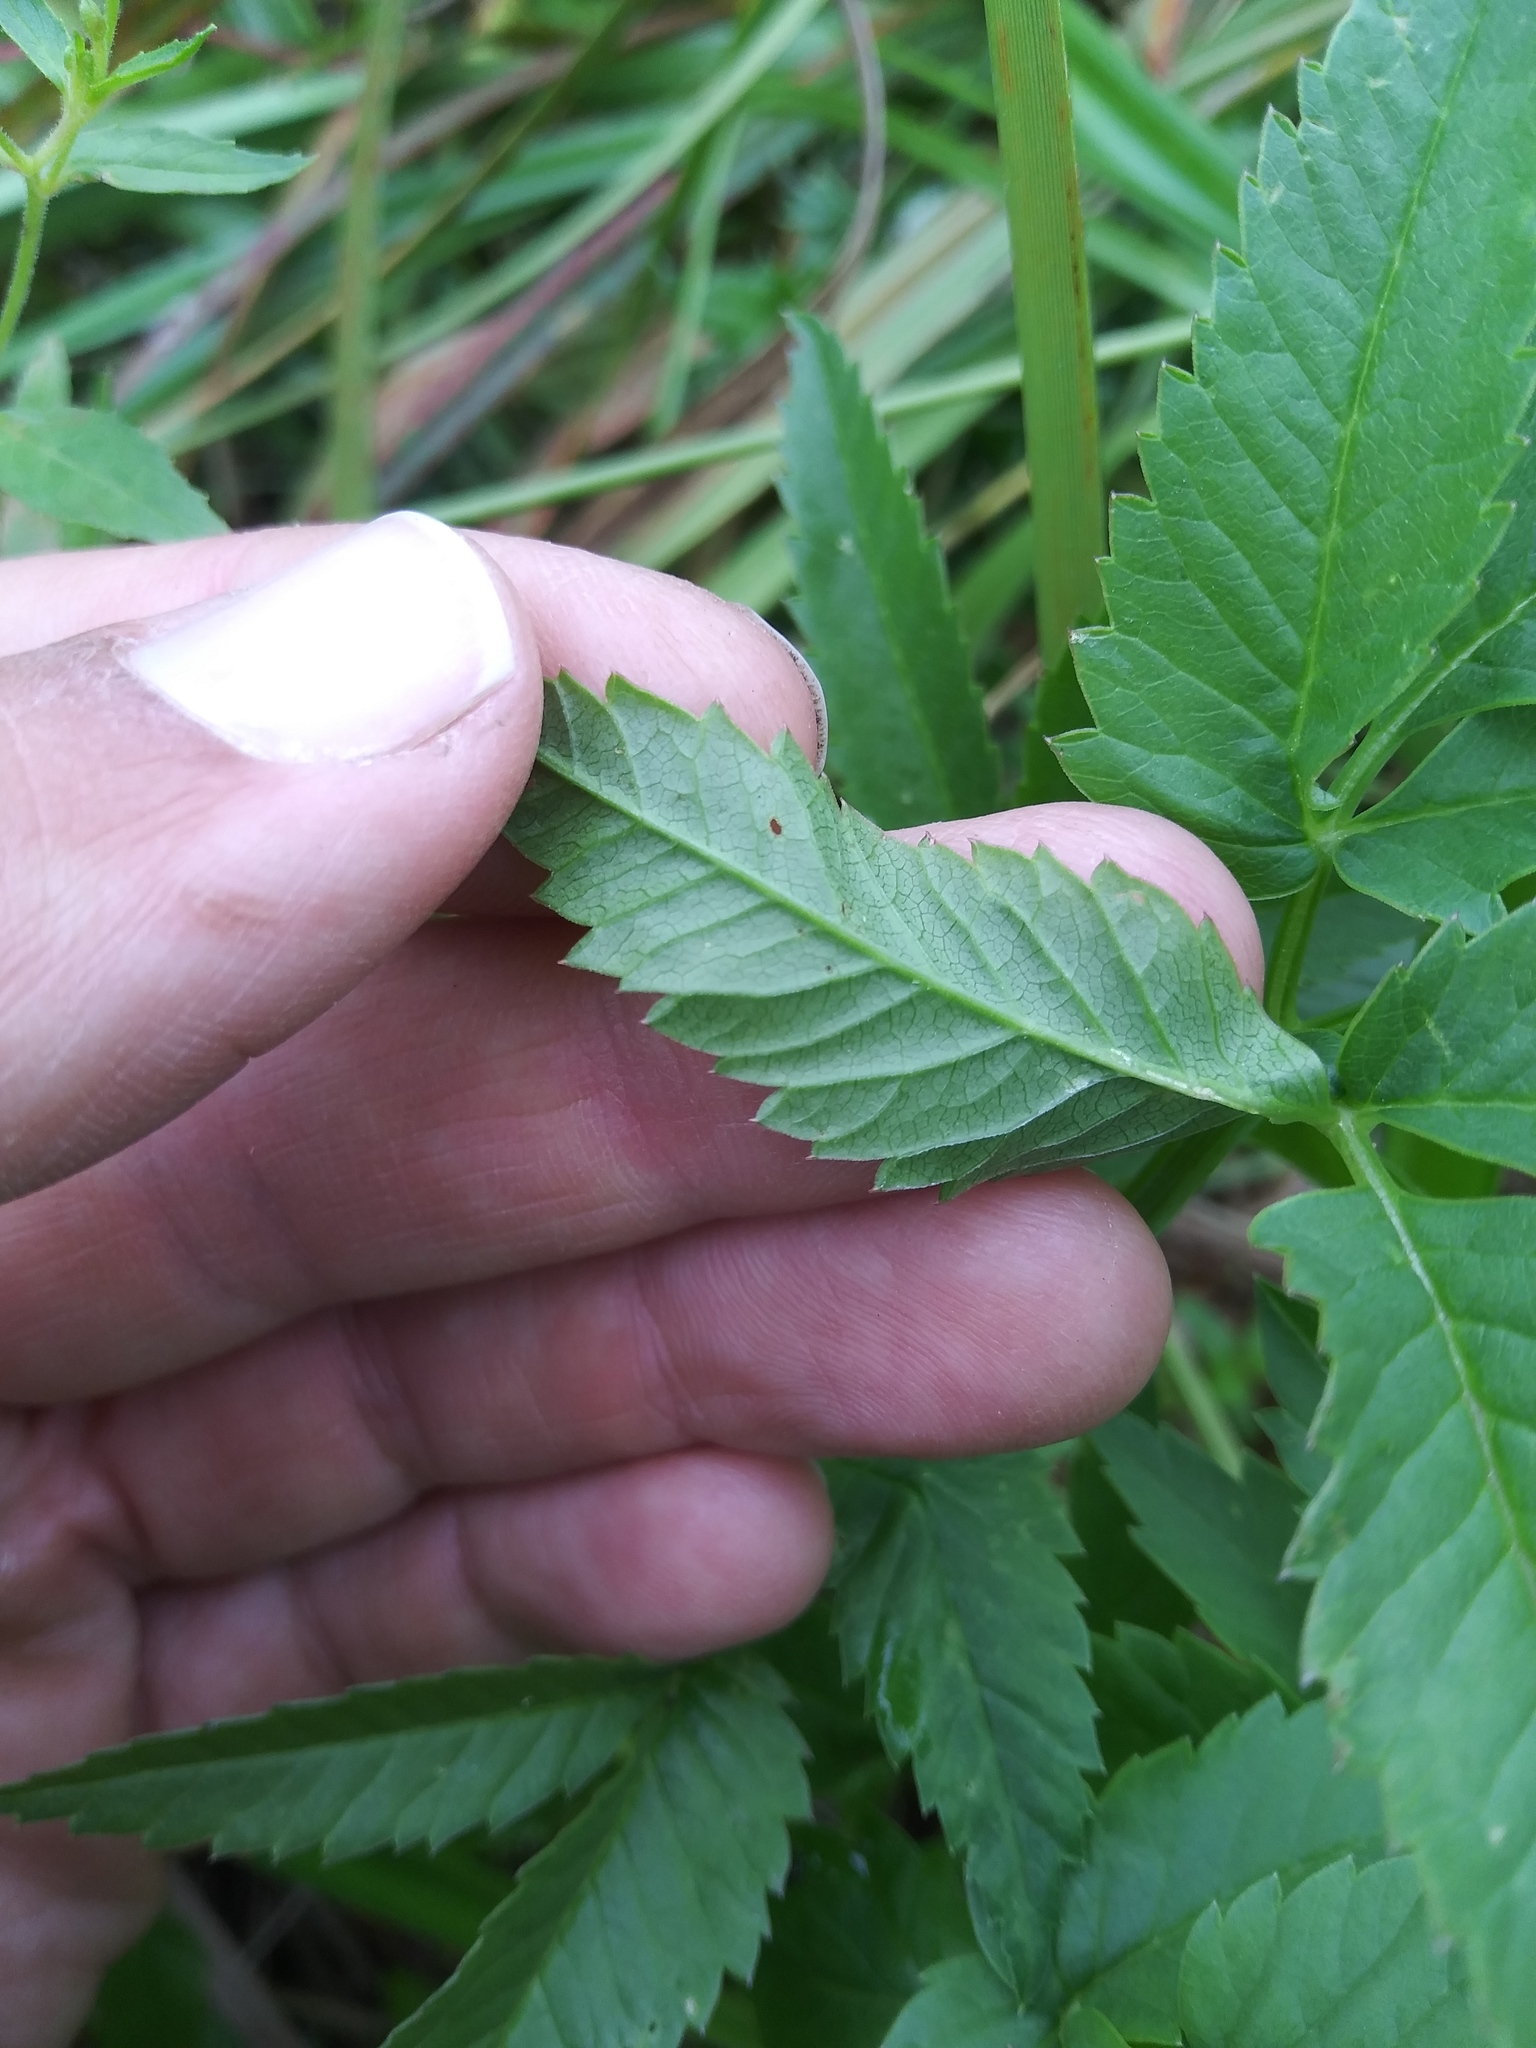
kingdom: Plantae
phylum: Tracheophyta
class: Magnoliopsida
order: Apiales
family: Apiaceae
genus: Cicuta
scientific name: Cicuta maculata
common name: Spotted cowbane
